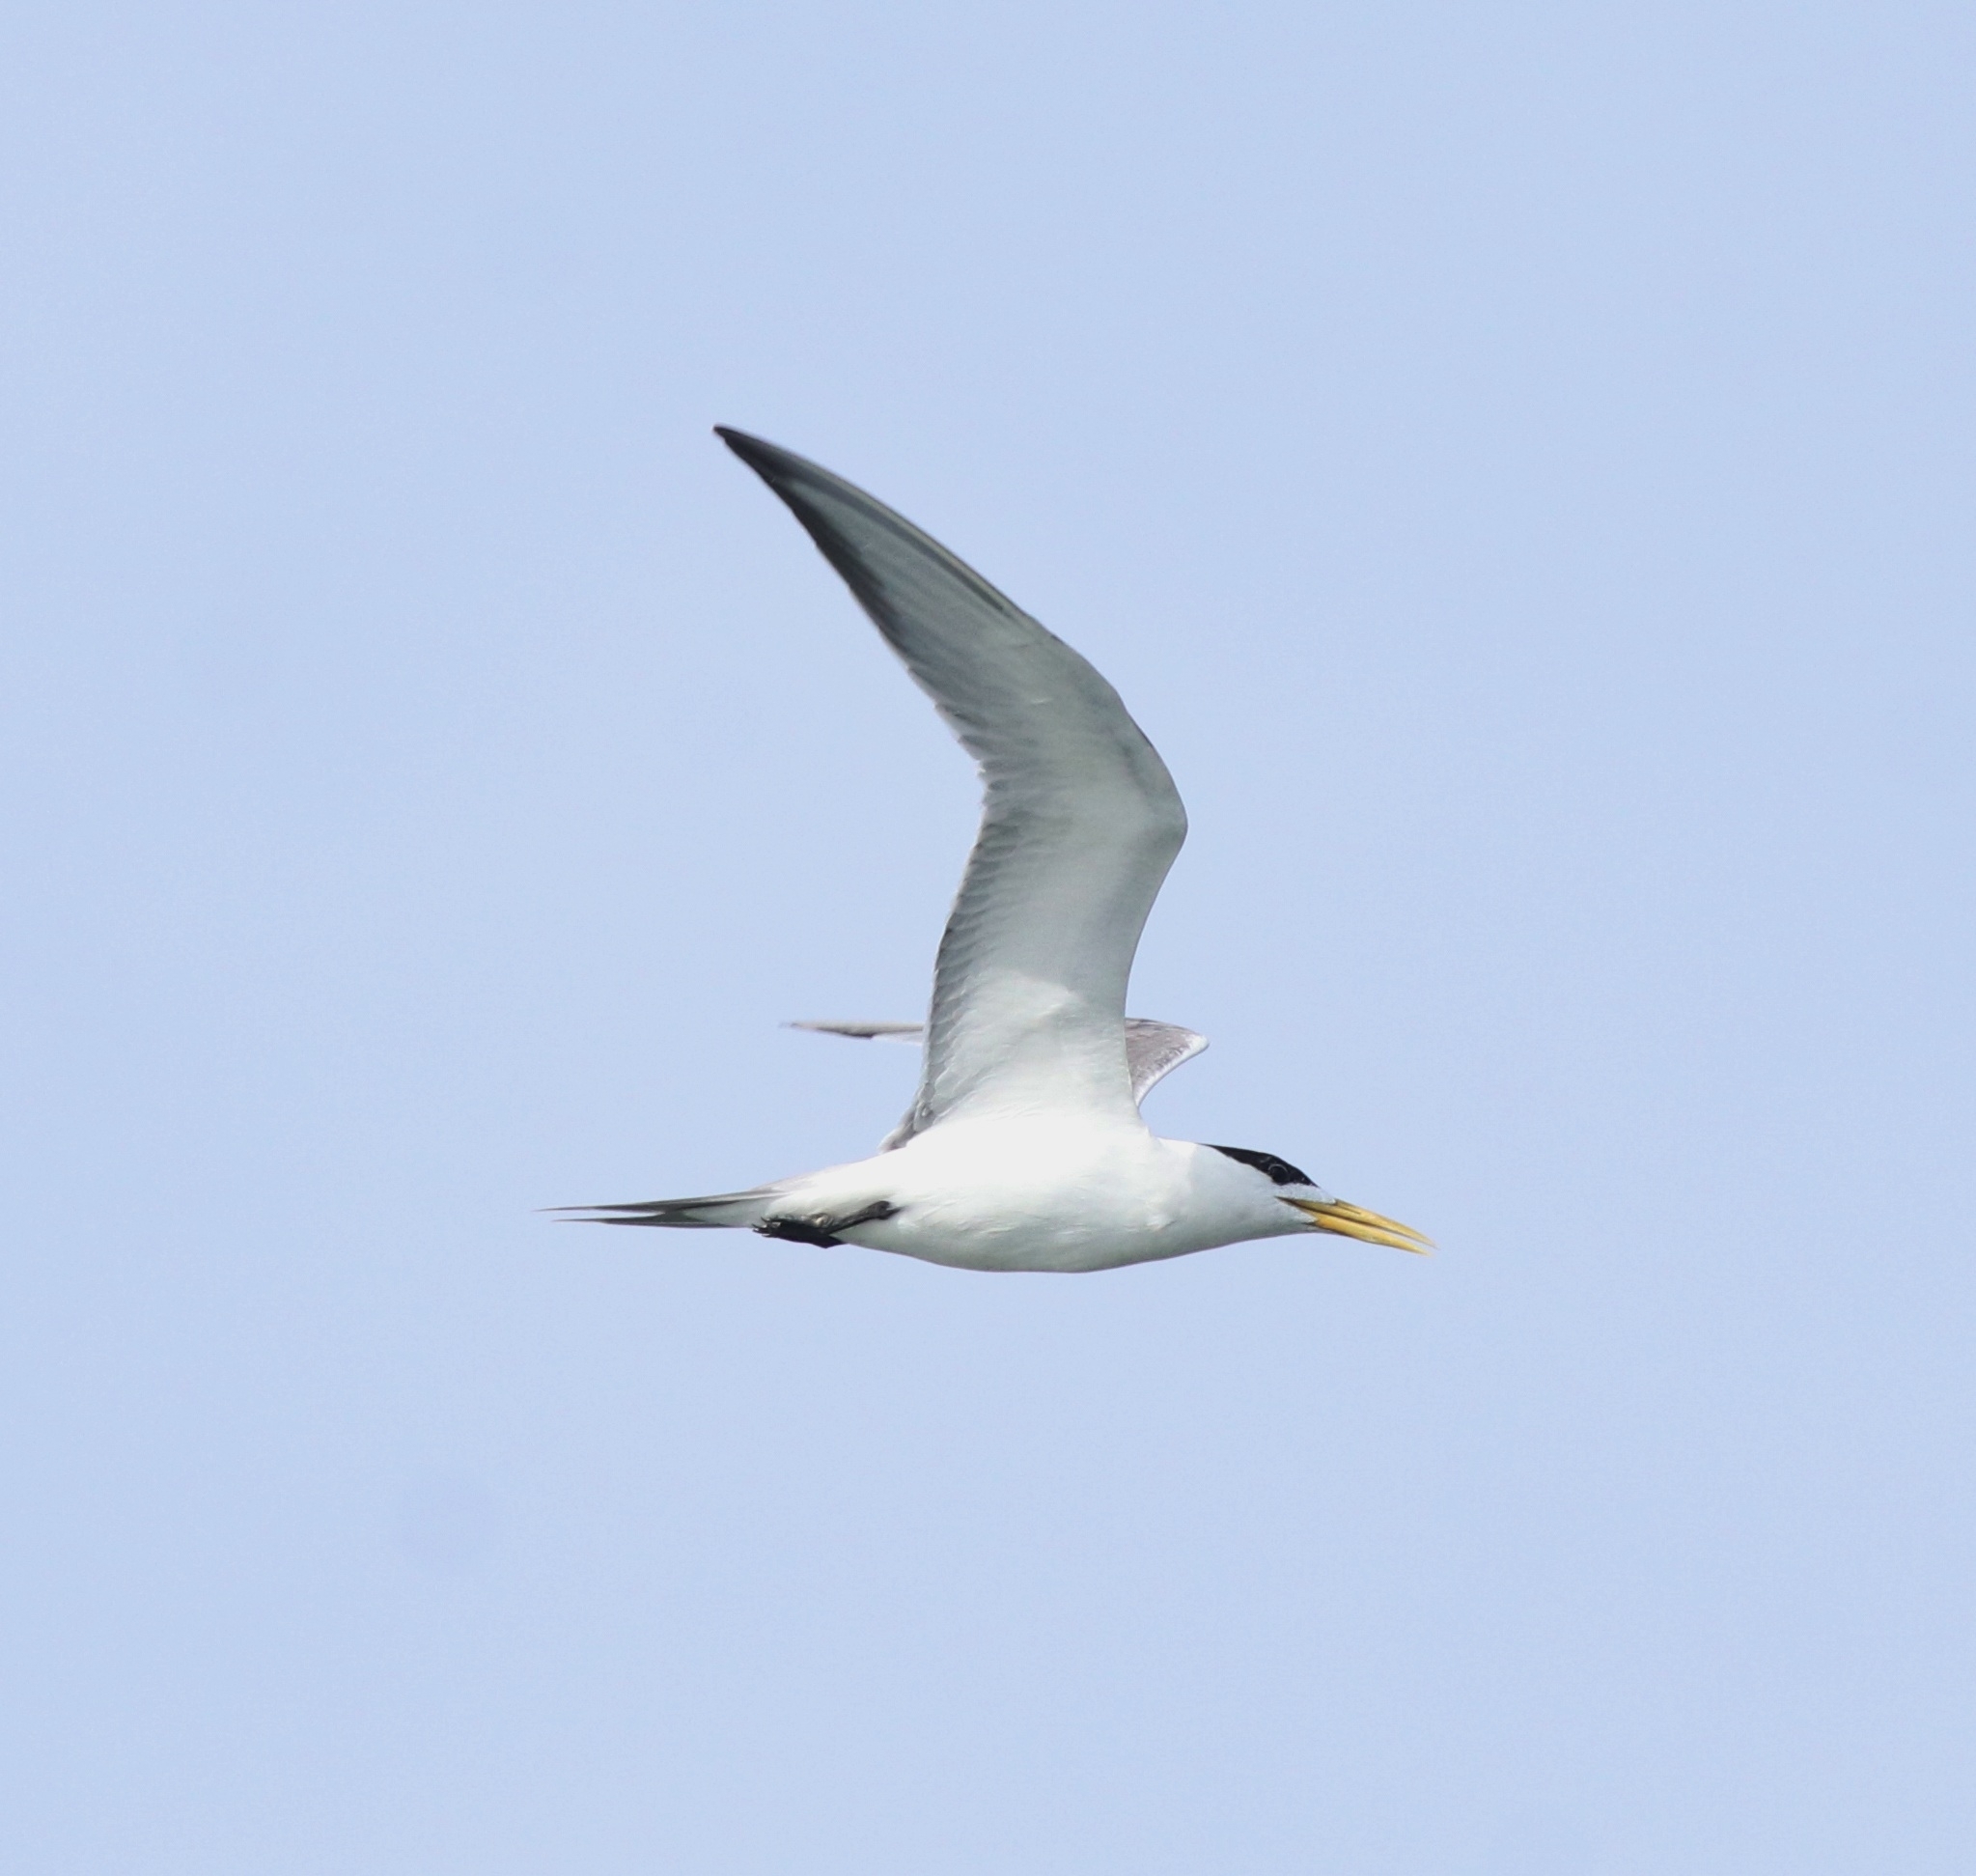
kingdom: Animalia
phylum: Chordata
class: Aves
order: Charadriiformes
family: Laridae
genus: Thalasseus
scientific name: Thalasseus bergii
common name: Greater crested tern
